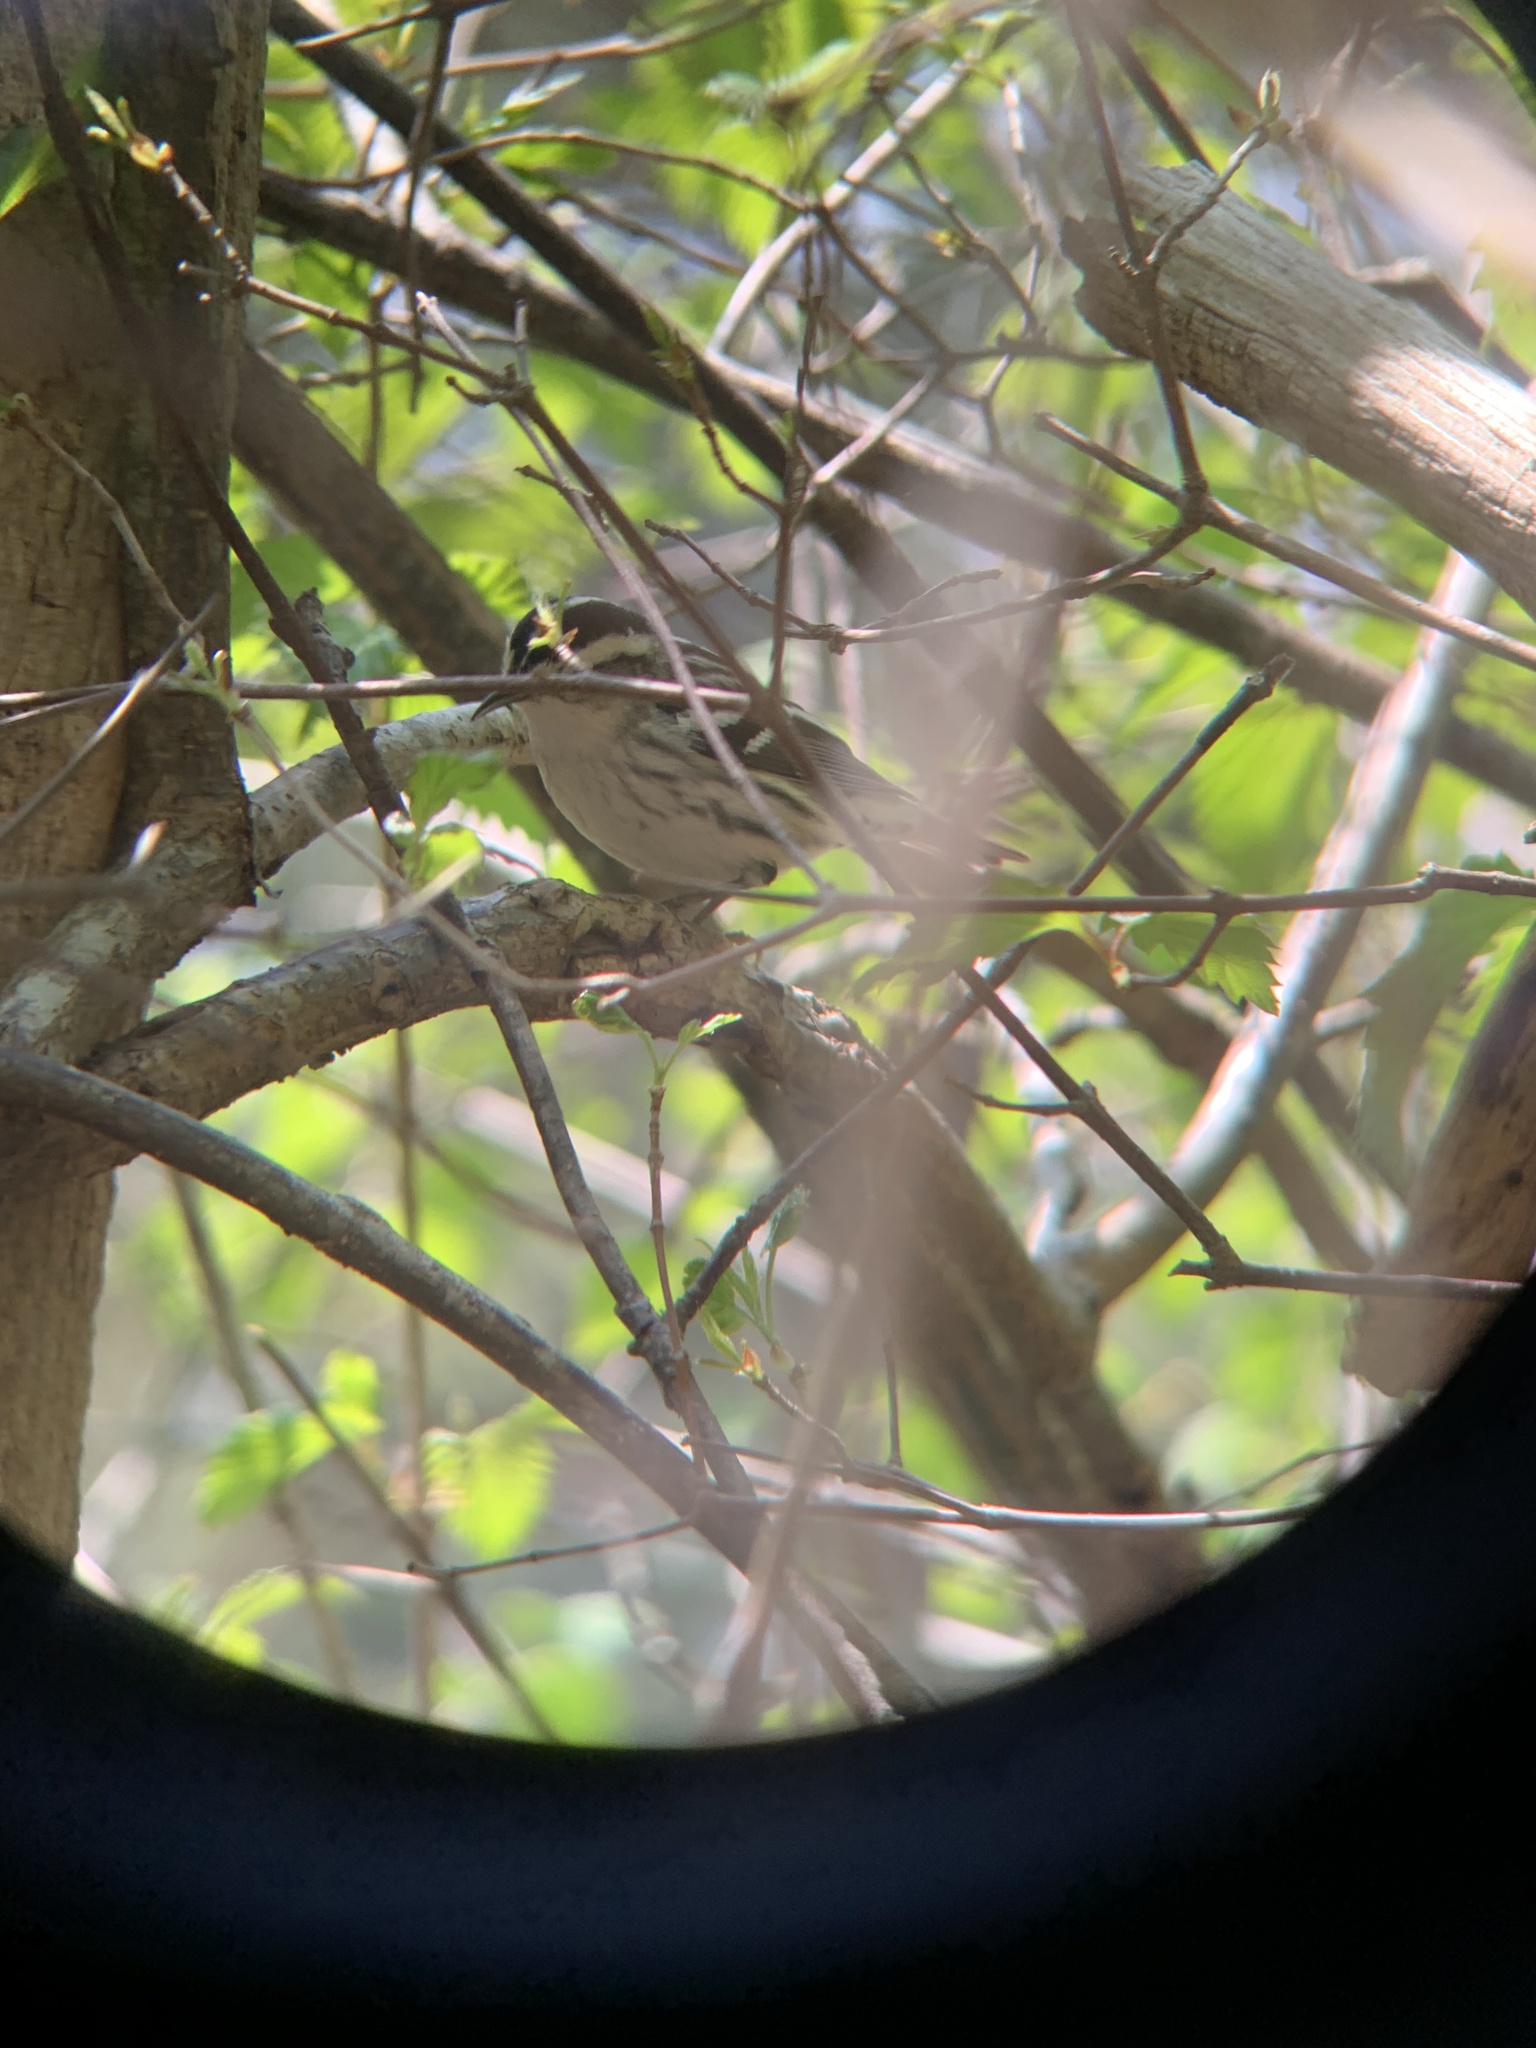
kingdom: Animalia
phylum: Chordata
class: Aves
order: Passeriformes
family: Parulidae
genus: Mniotilta
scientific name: Mniotilta varia
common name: Black-and-white warbler
